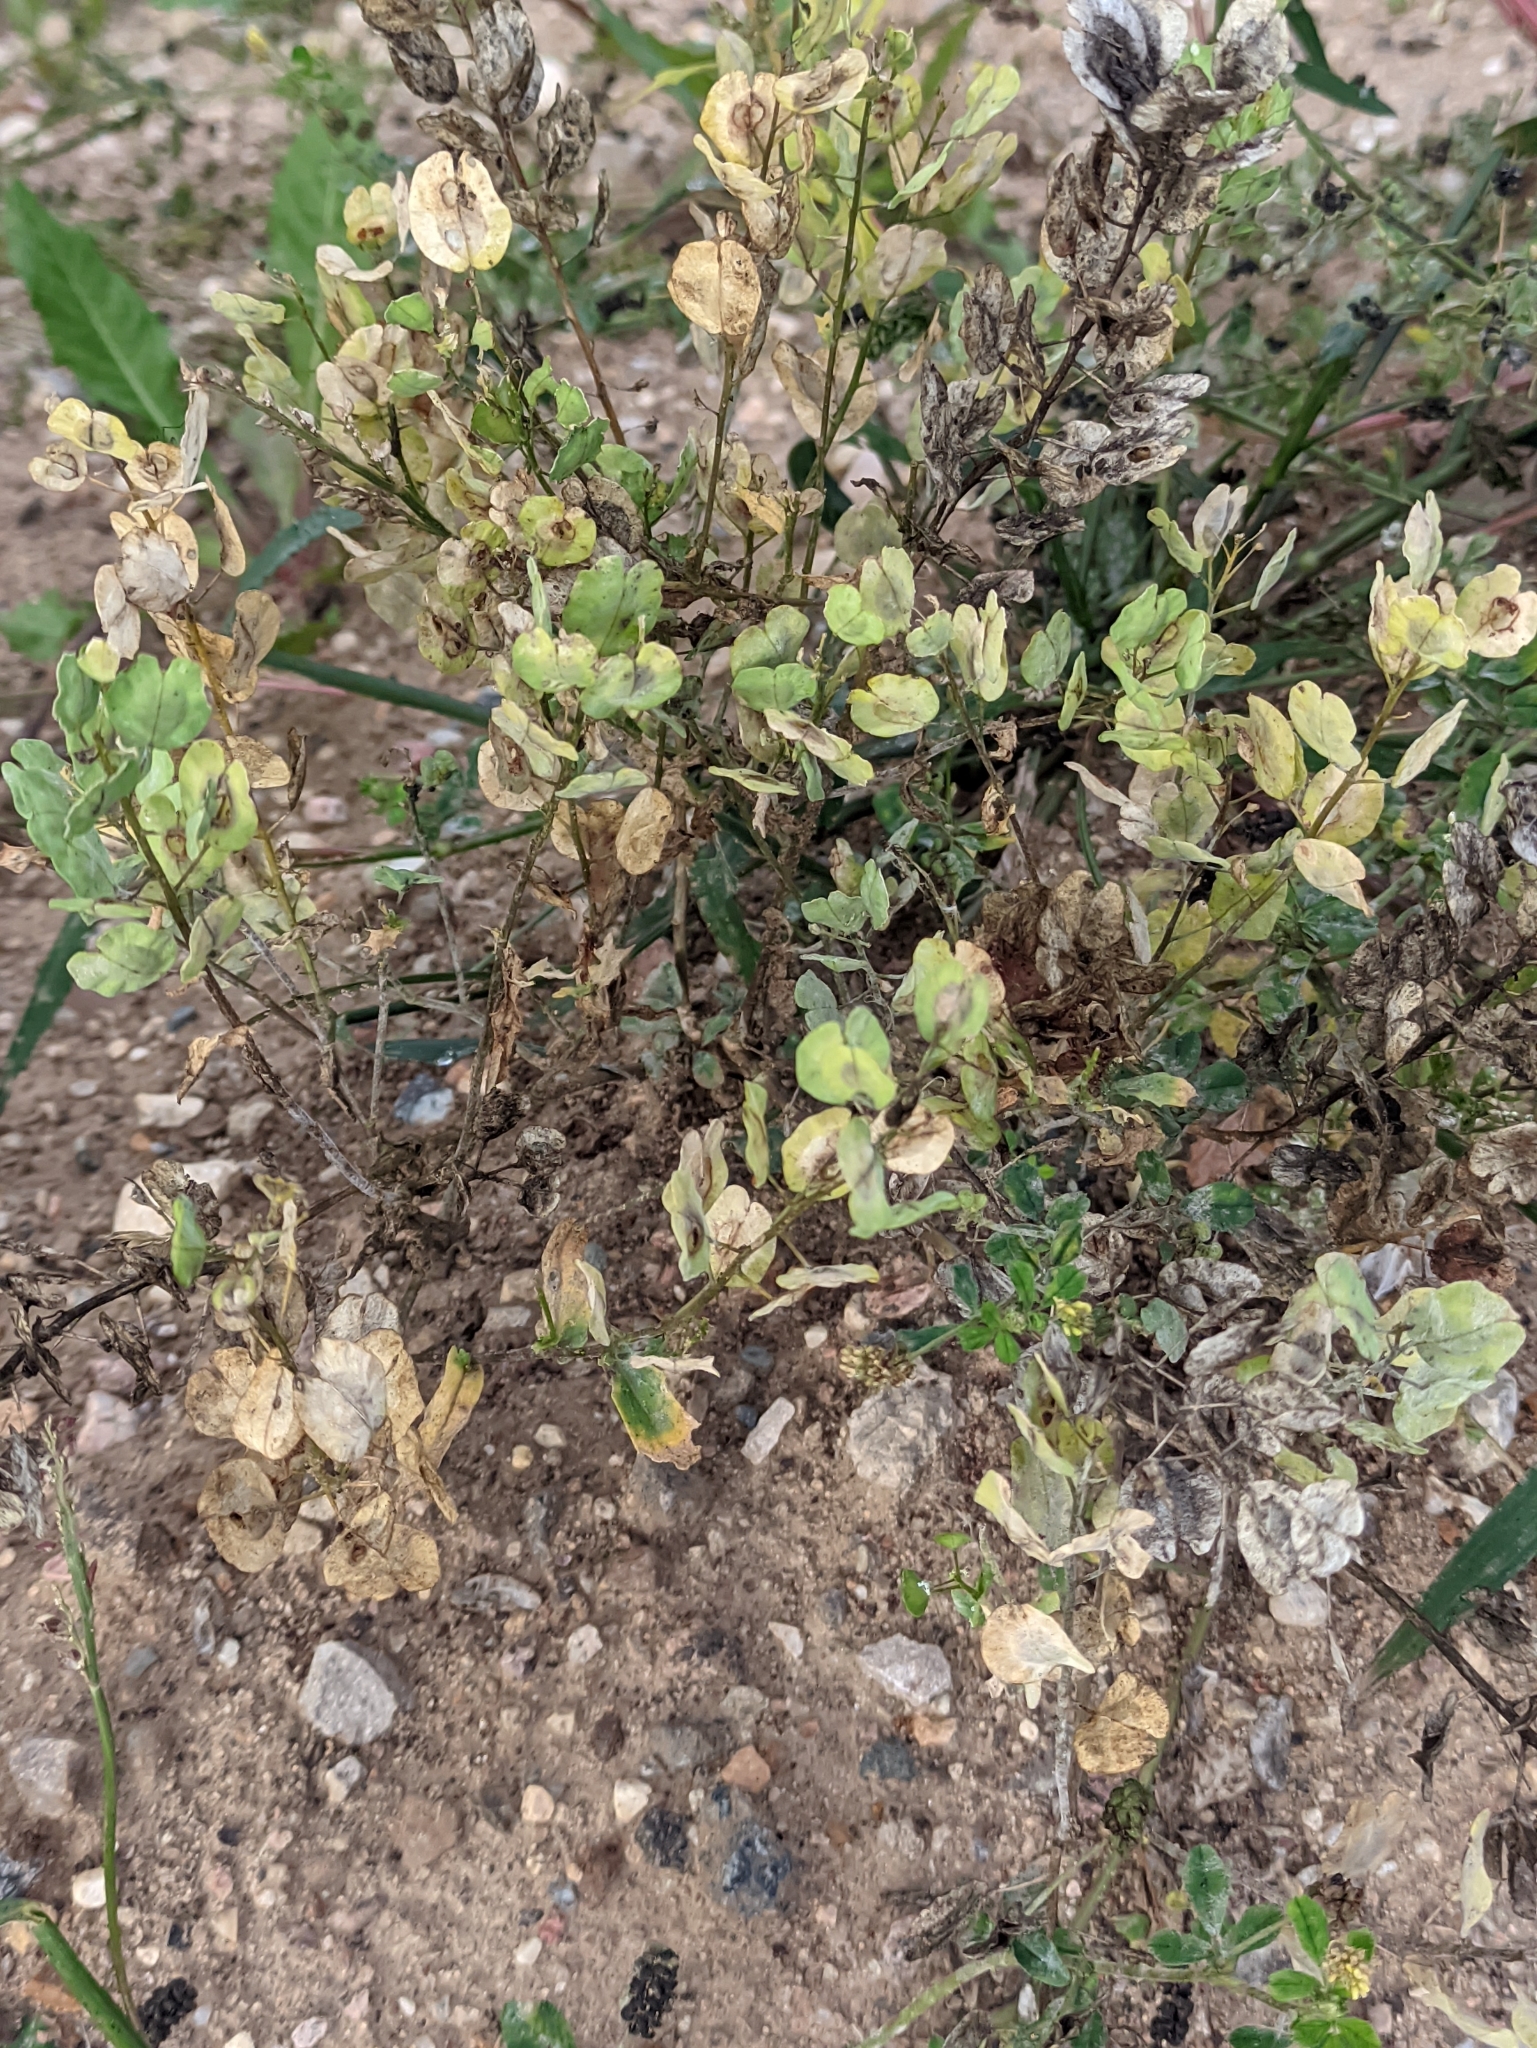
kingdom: Plantae
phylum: Tracheophyta
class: Magnoliopsida
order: Brassicales
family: Brassicaceae
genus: Thlaspi
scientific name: Thlaspi arvense
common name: Field pennycress
